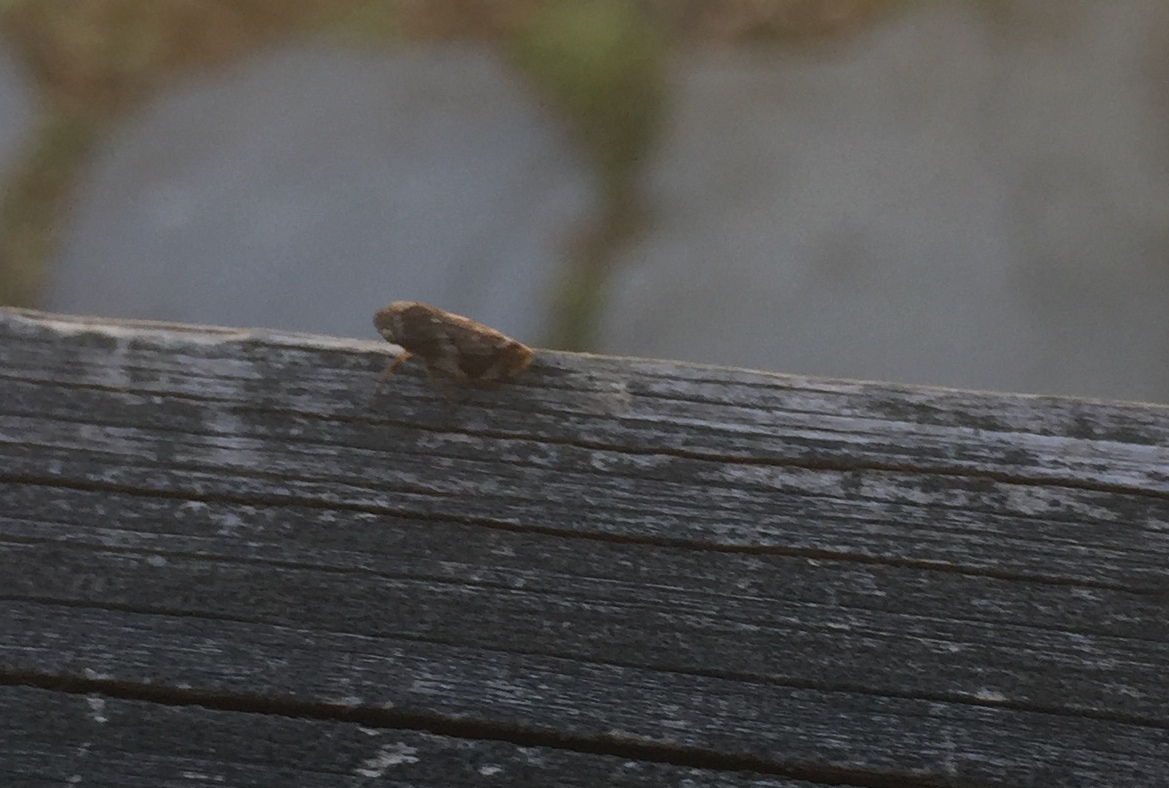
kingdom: Animalia
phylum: Arthropoda
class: Insecta
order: Hemiptera
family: Aphrophoridae
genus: Philaenus
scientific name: Philaenus spumarius
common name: Meadow spittlebug
